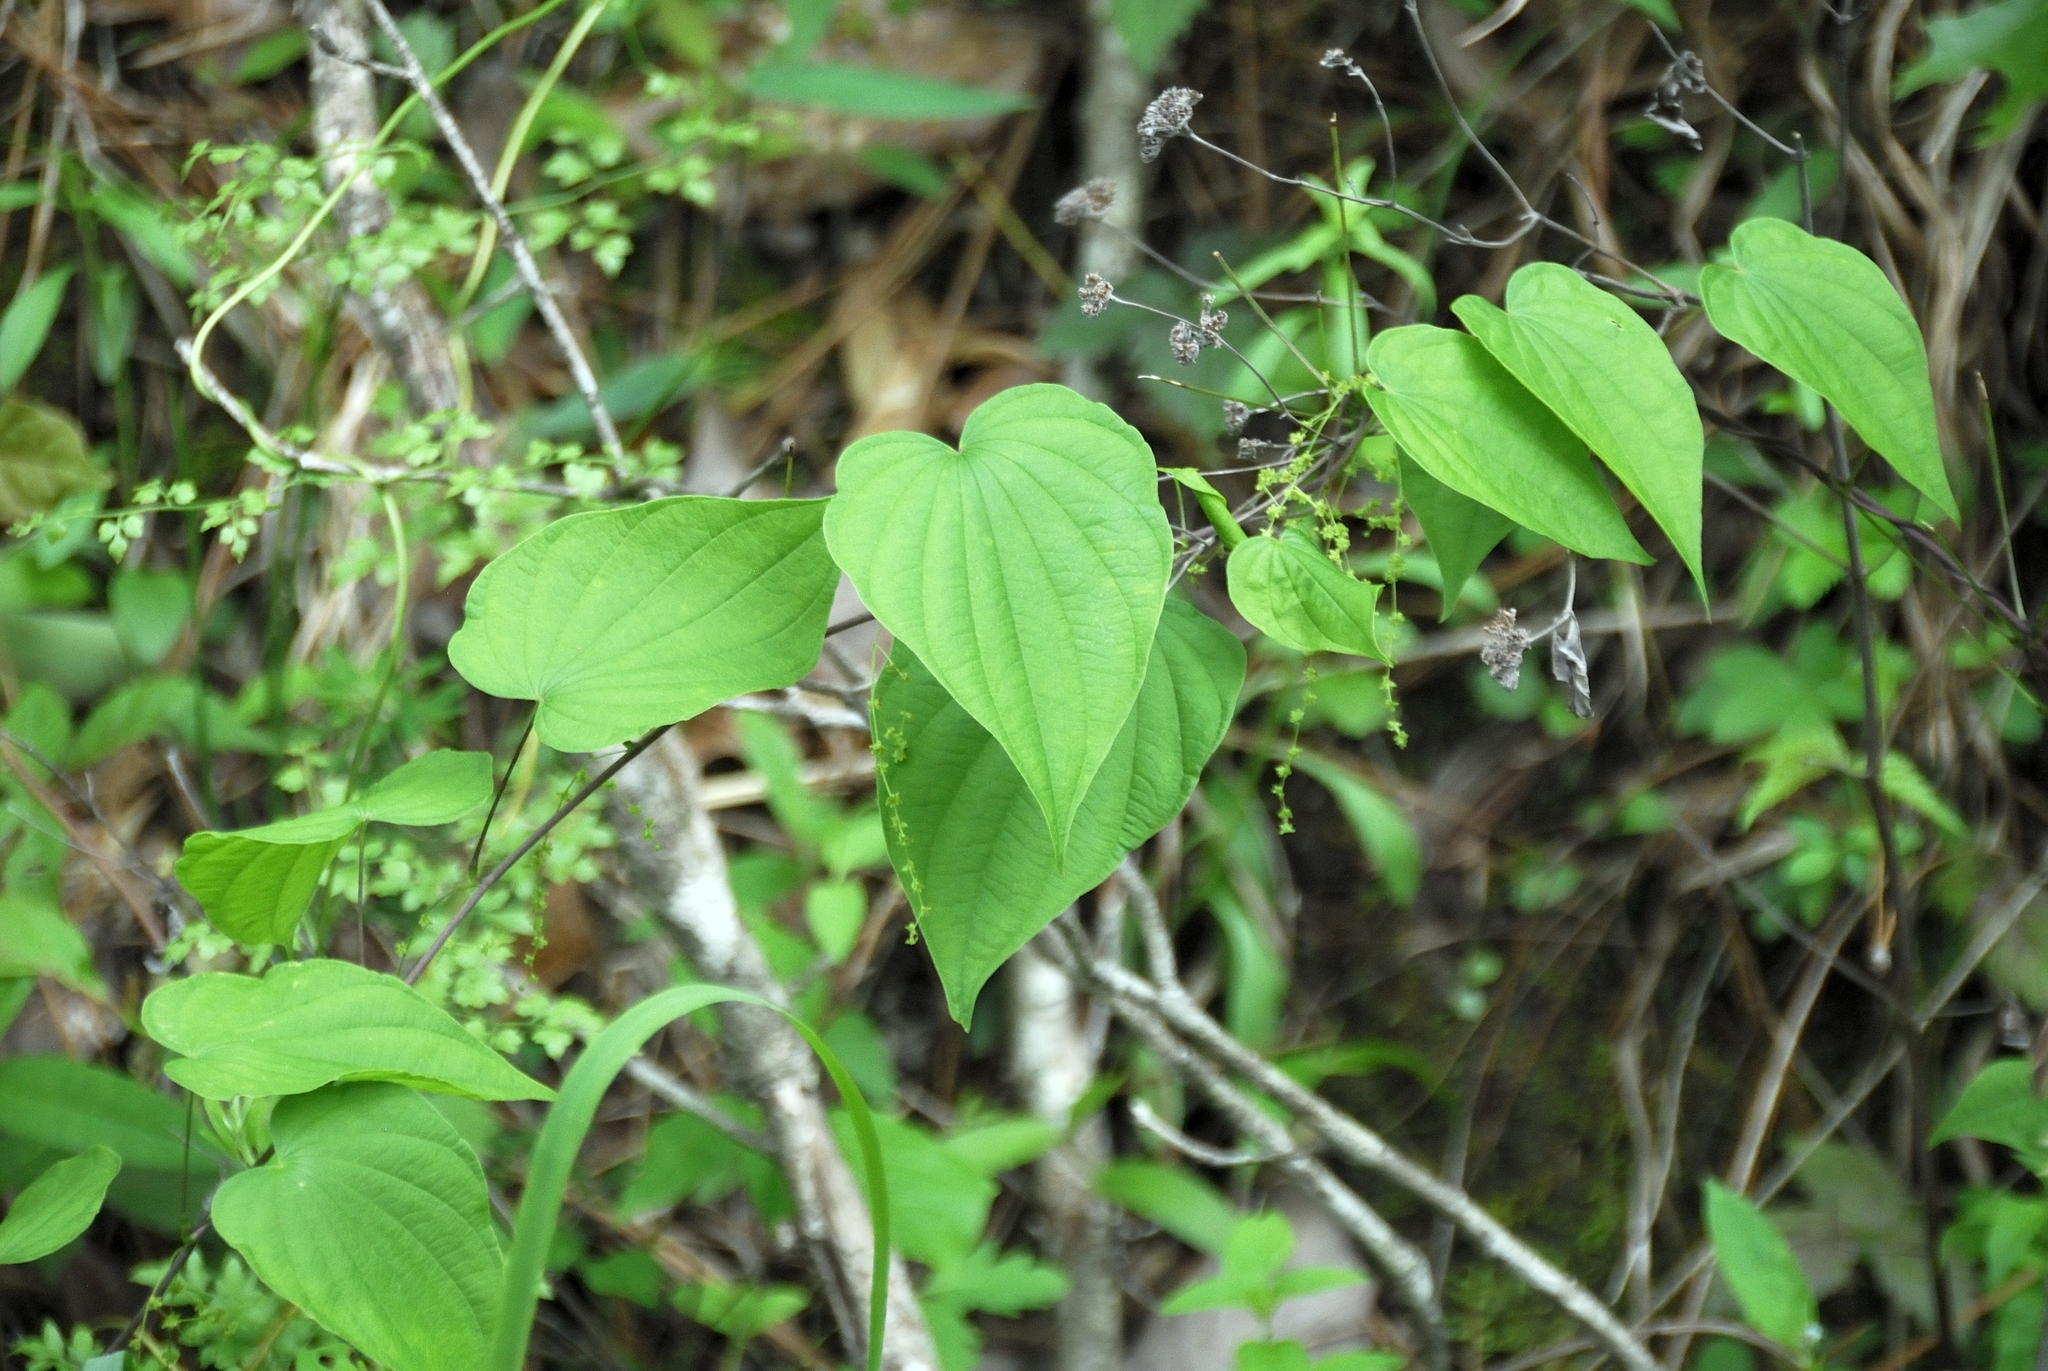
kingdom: Plantae
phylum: Tracheophyta
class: Liliopsida
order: Dioscoreales
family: Dioscoreaceae
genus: Dioscorea
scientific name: Dioscorea villosa
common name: Wild yam
